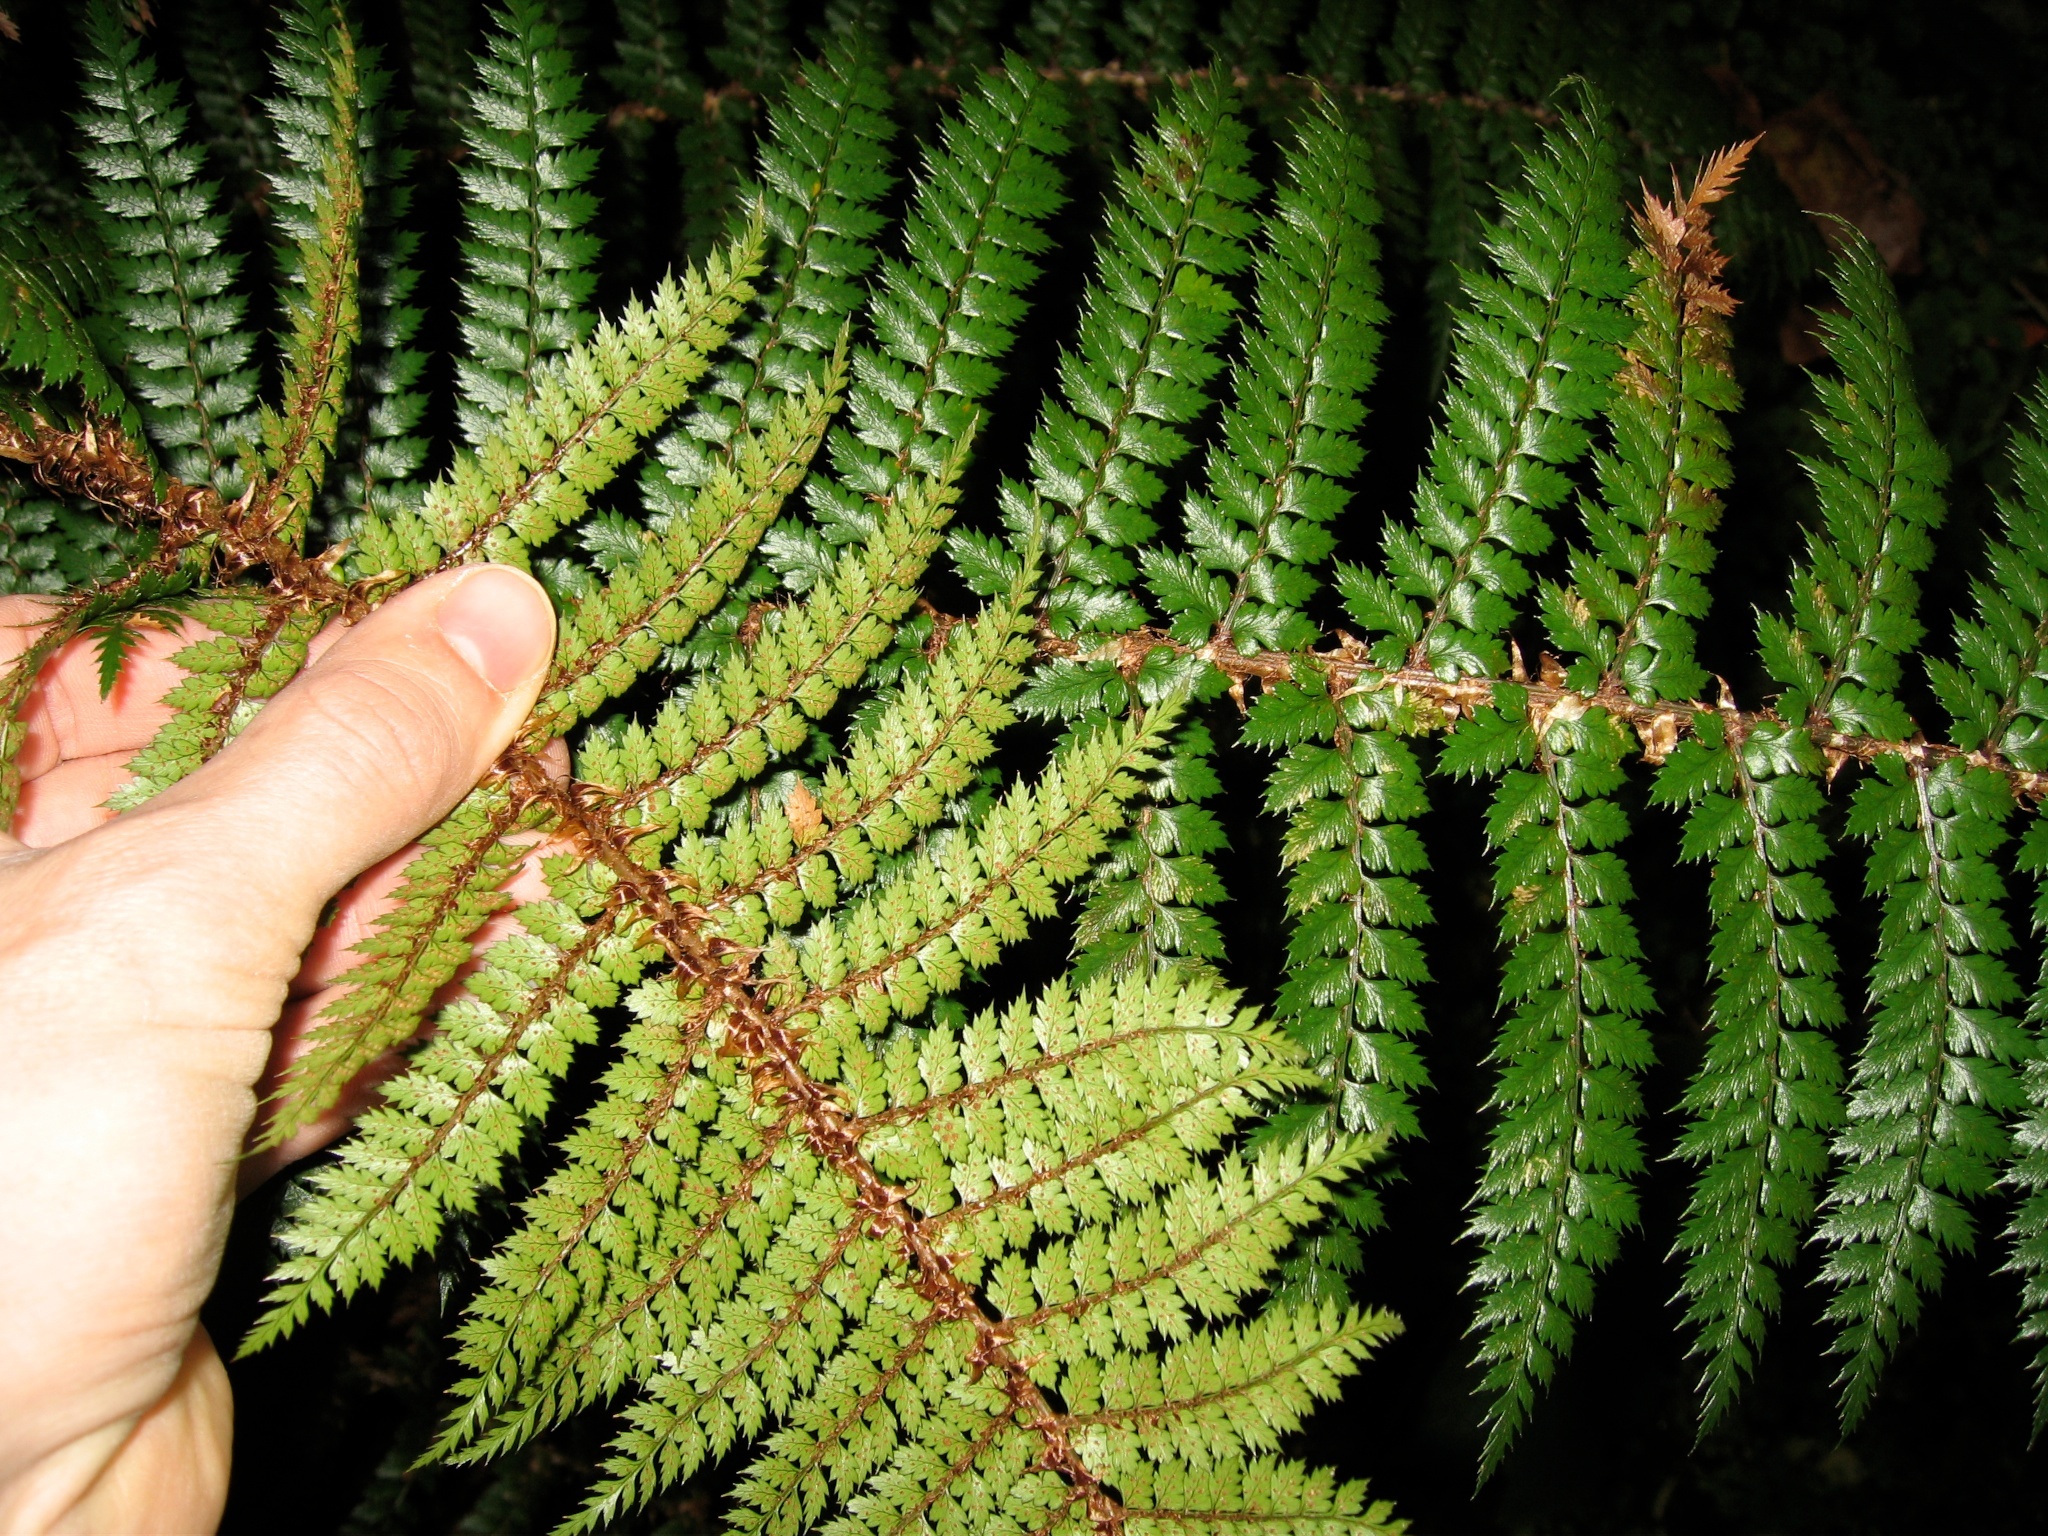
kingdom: Plantae
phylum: Tracheophyta
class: Polypodiopsida
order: Polypodiales
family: Dryopteridaceae
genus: Polystichum
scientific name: Polystichum vestitum
